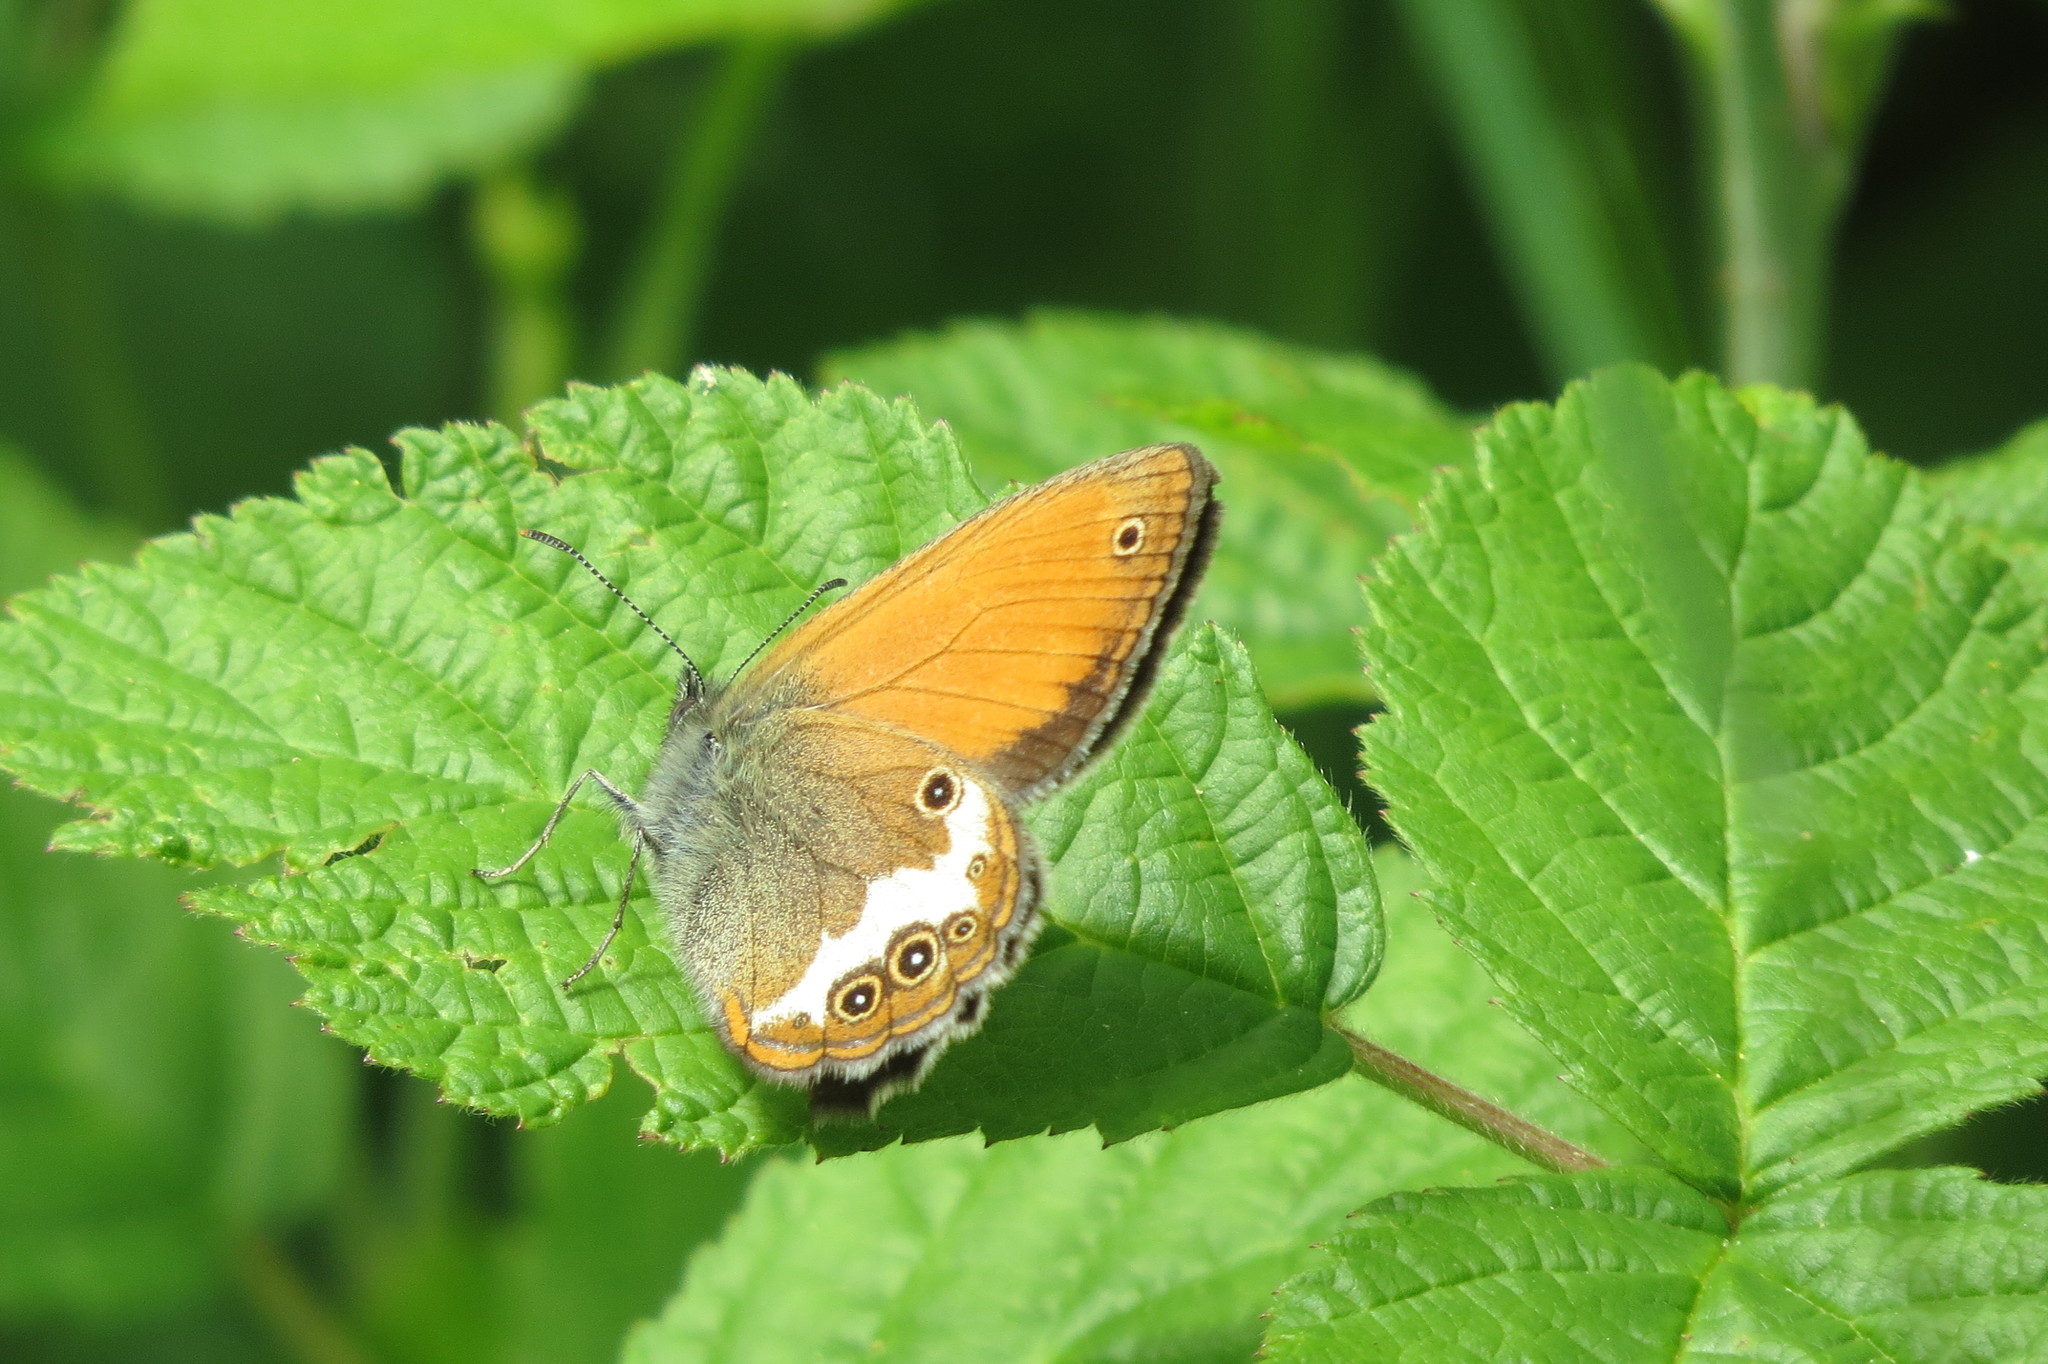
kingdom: Animalia
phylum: Arthropoda
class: Insecta
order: Lepidoptera
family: Nymphalidae
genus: Coenonympha
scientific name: Coenonympha arcania
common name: Pearly heath
